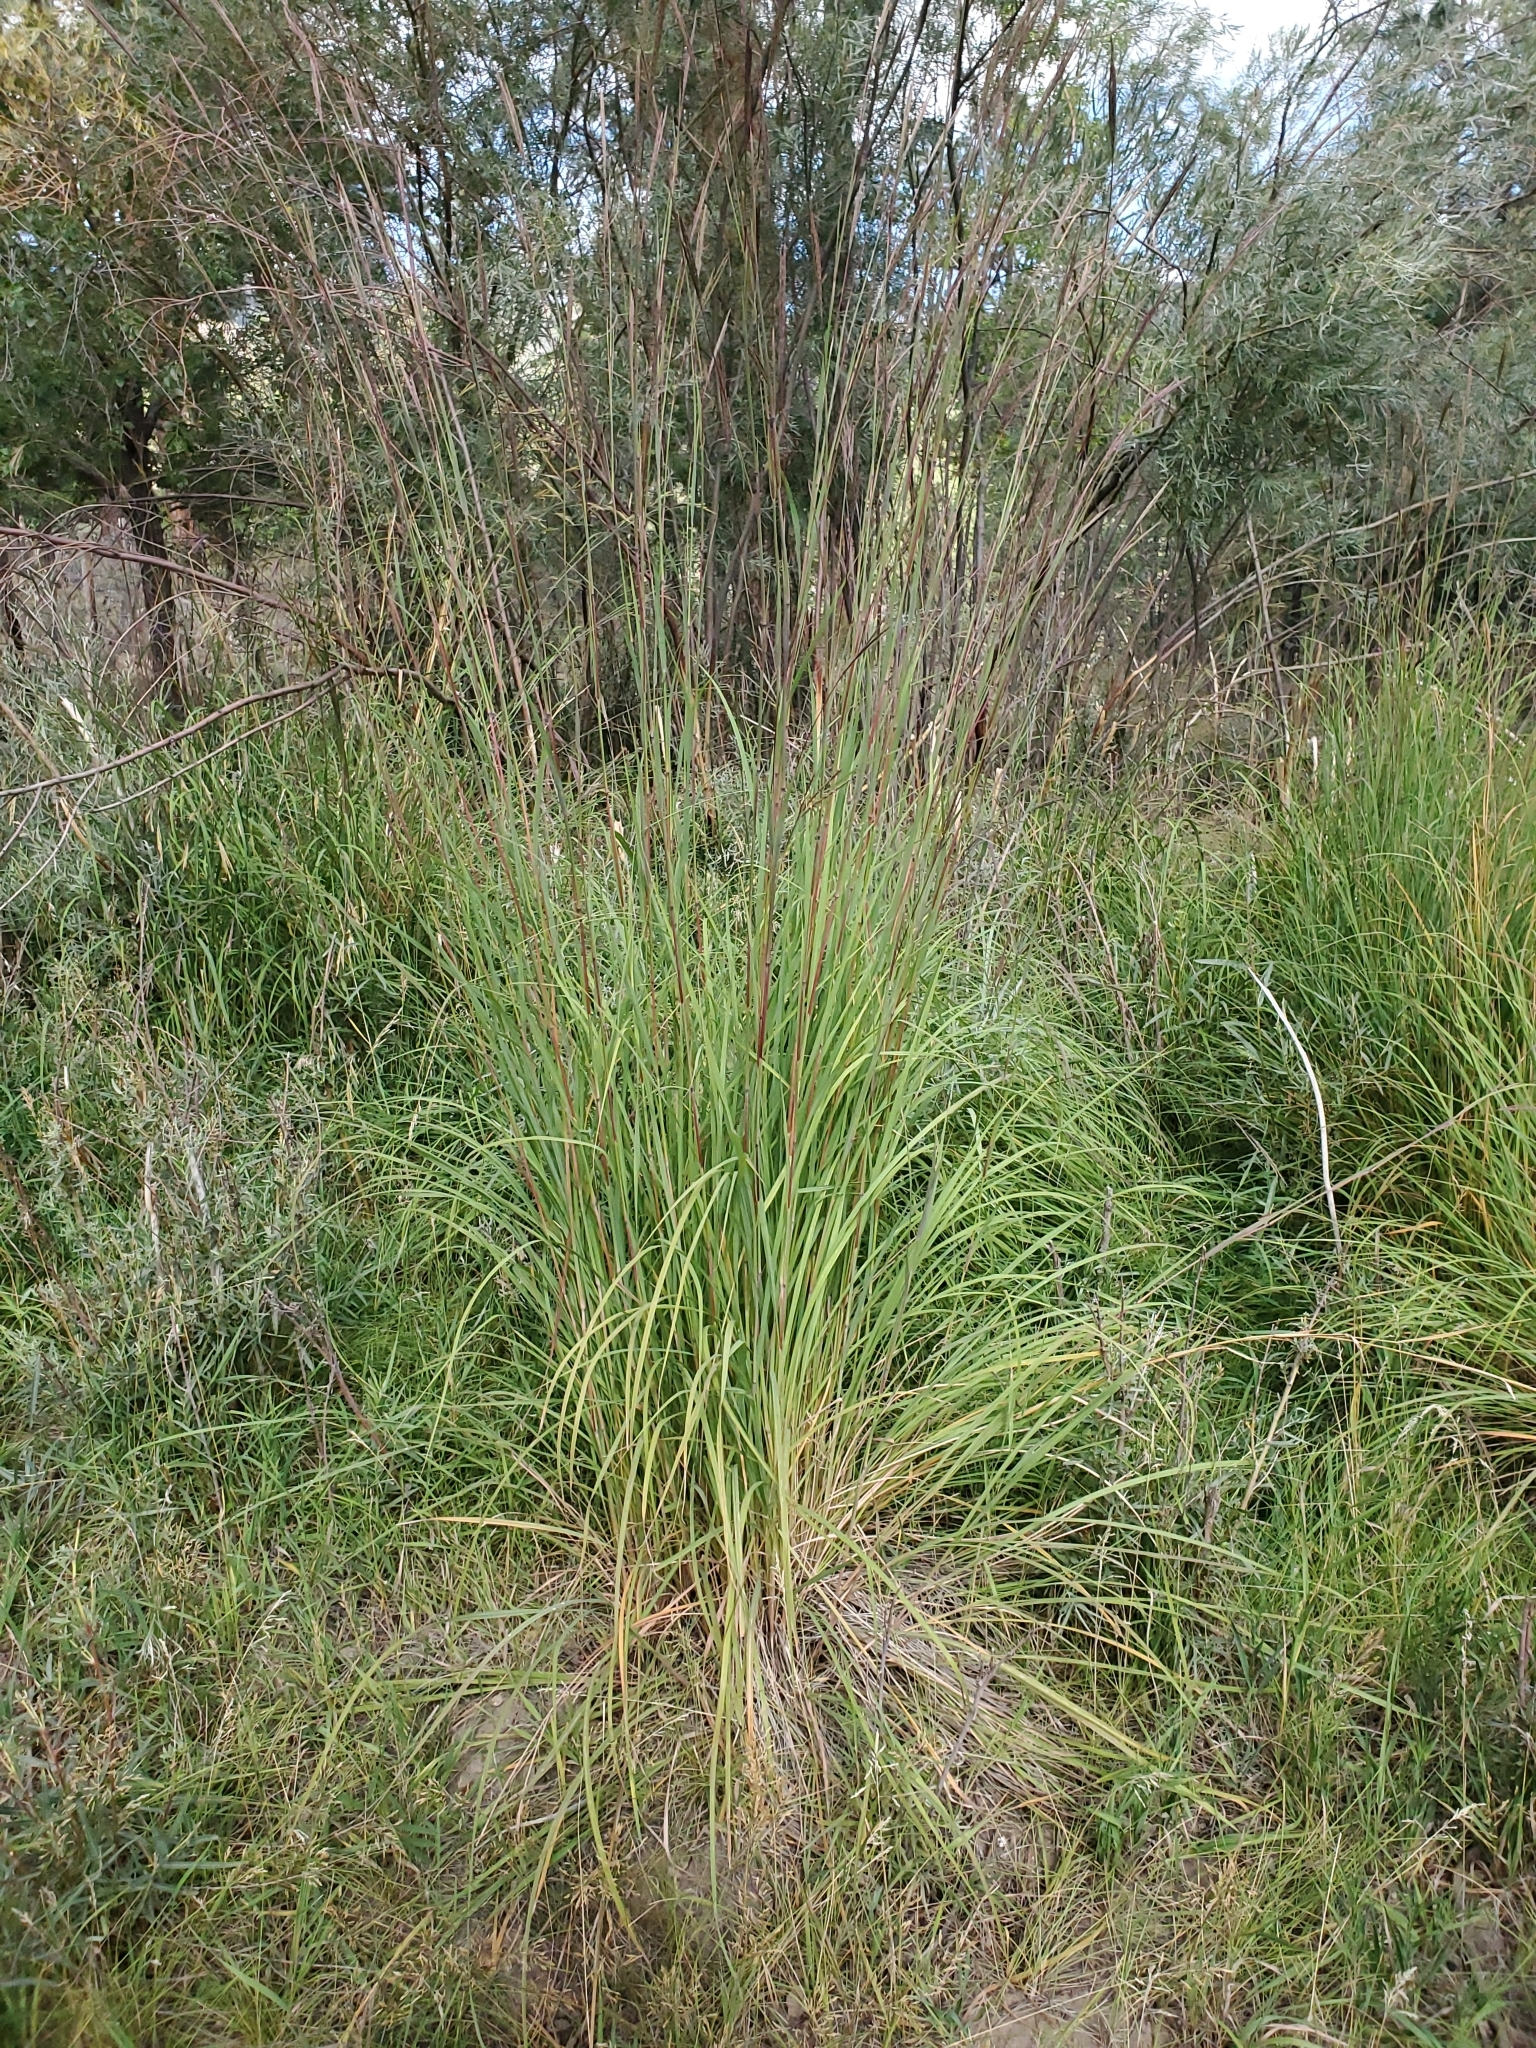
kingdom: Plantae
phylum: Tracheophyta
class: Liliopsida
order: Poales
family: Poaceae
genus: Andropogon
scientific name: Andropogon gerardi
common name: Big bluestem
